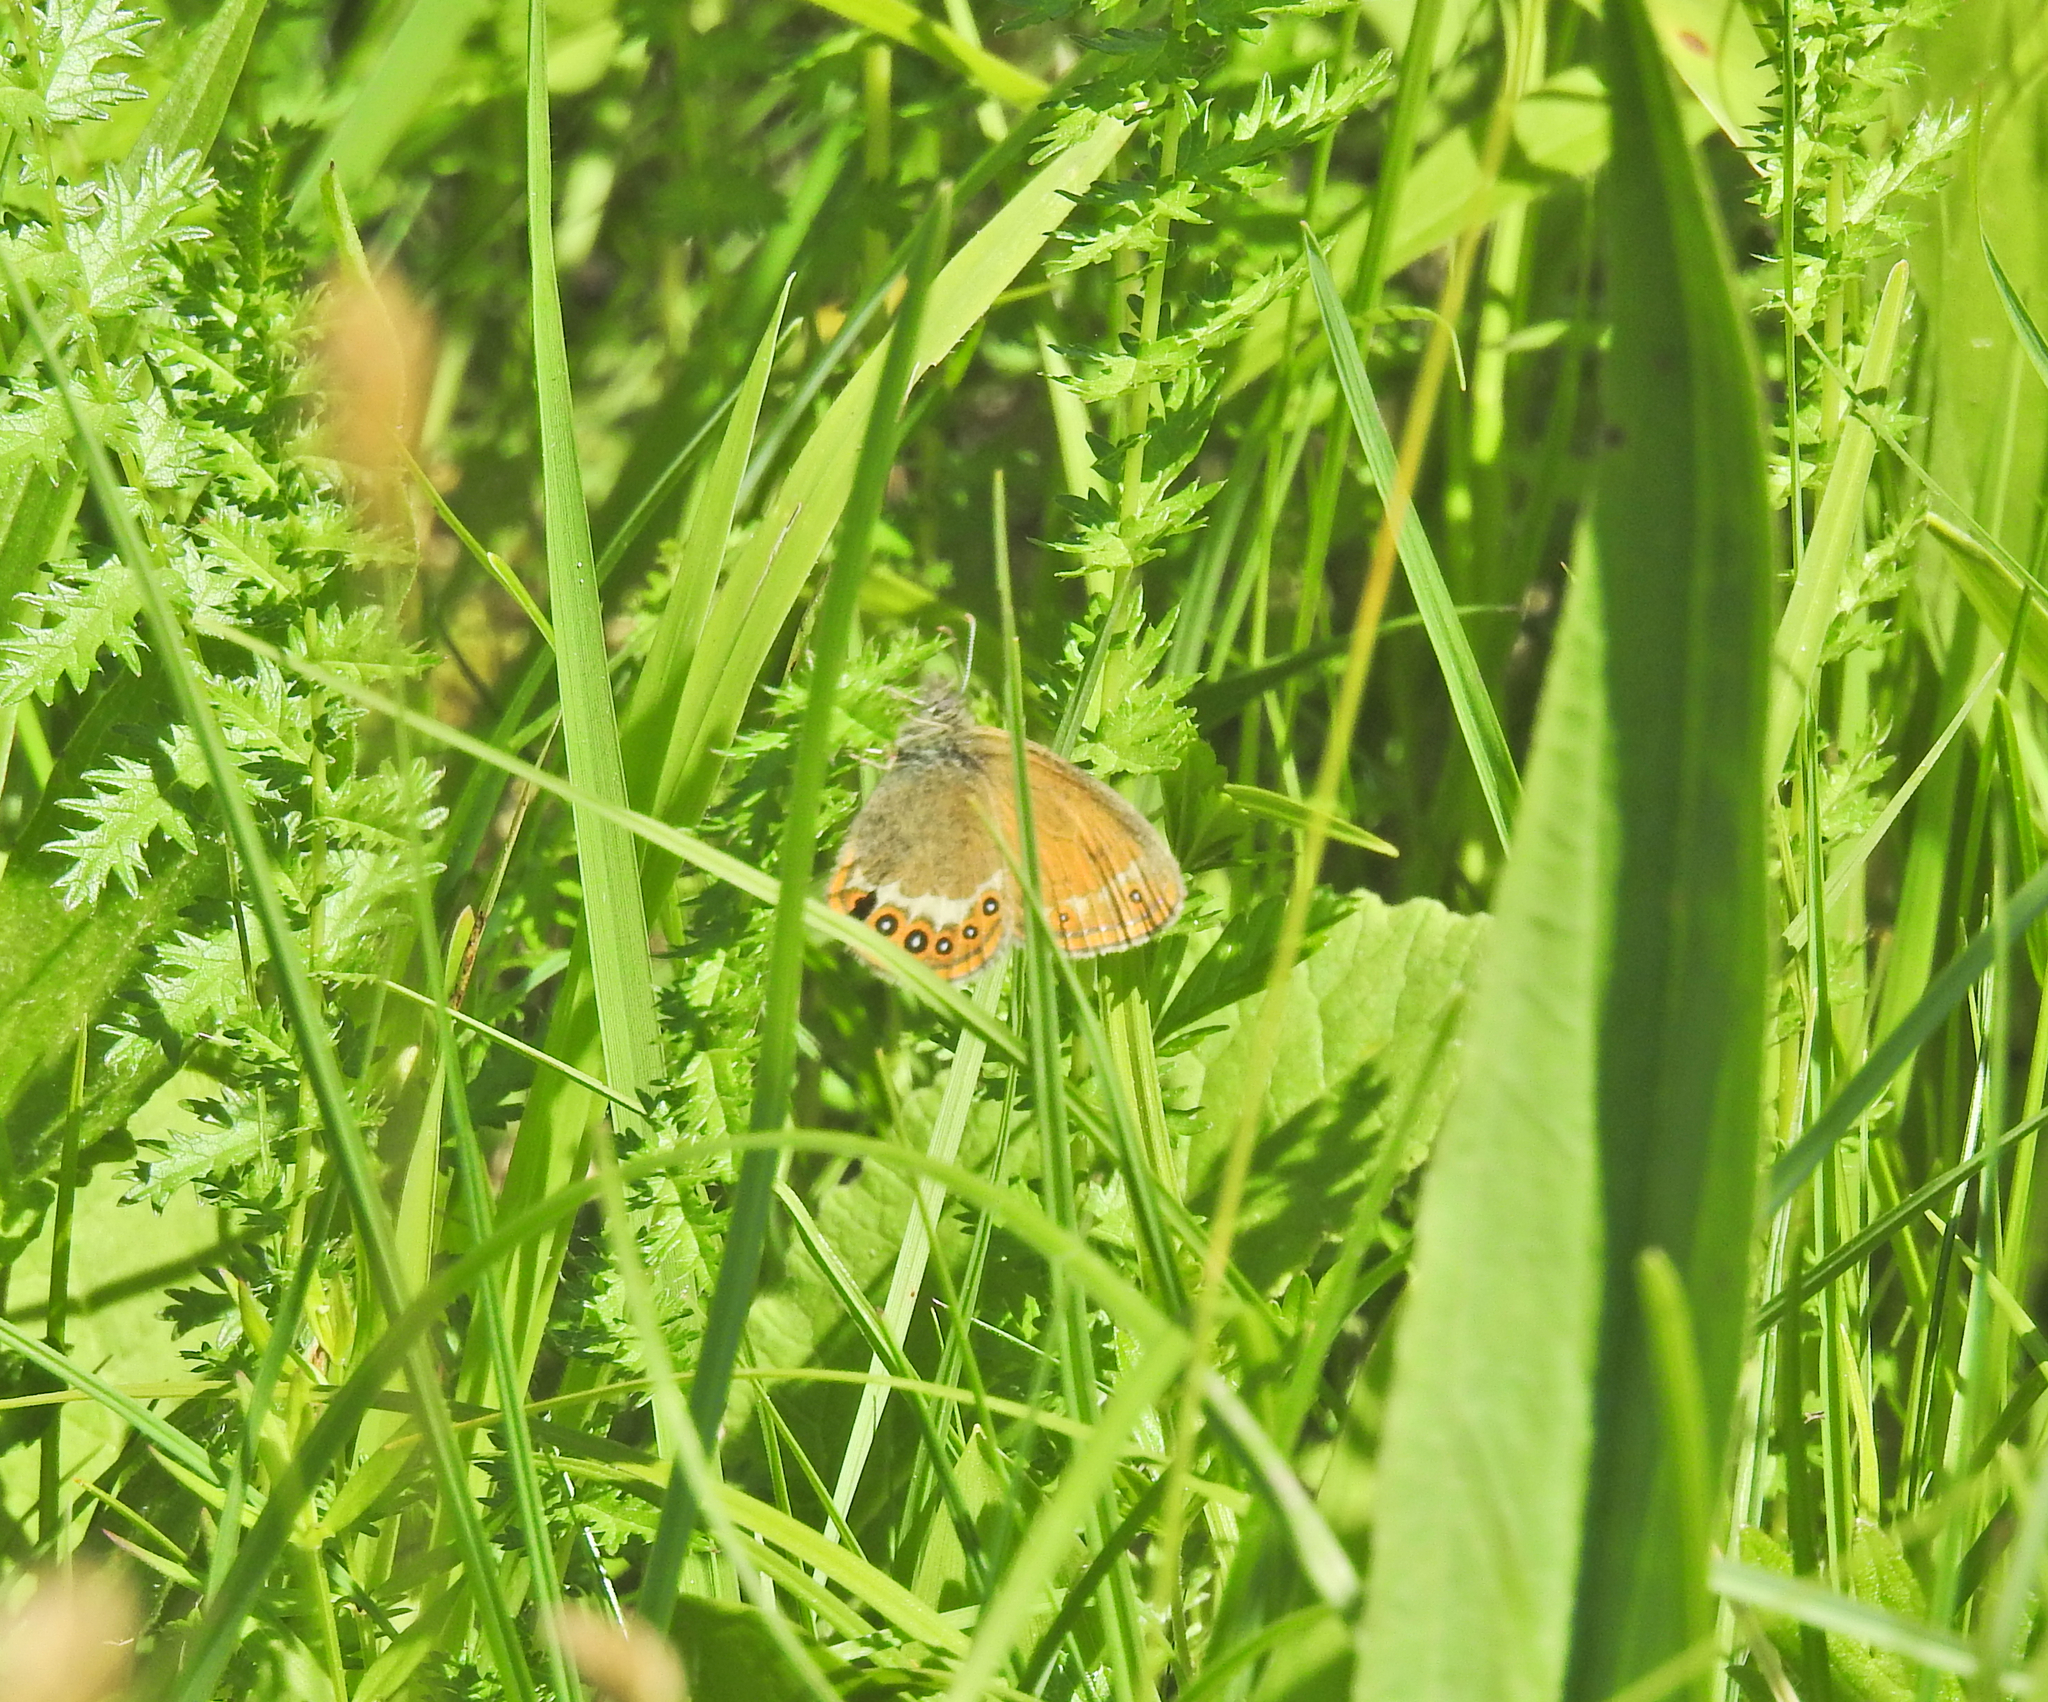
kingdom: Animalia
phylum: Arthropoda
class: Insecta
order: Lepidoptera
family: Nymphalidae
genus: Coenonympha
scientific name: Coenonympha hero
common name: Scarce heath
